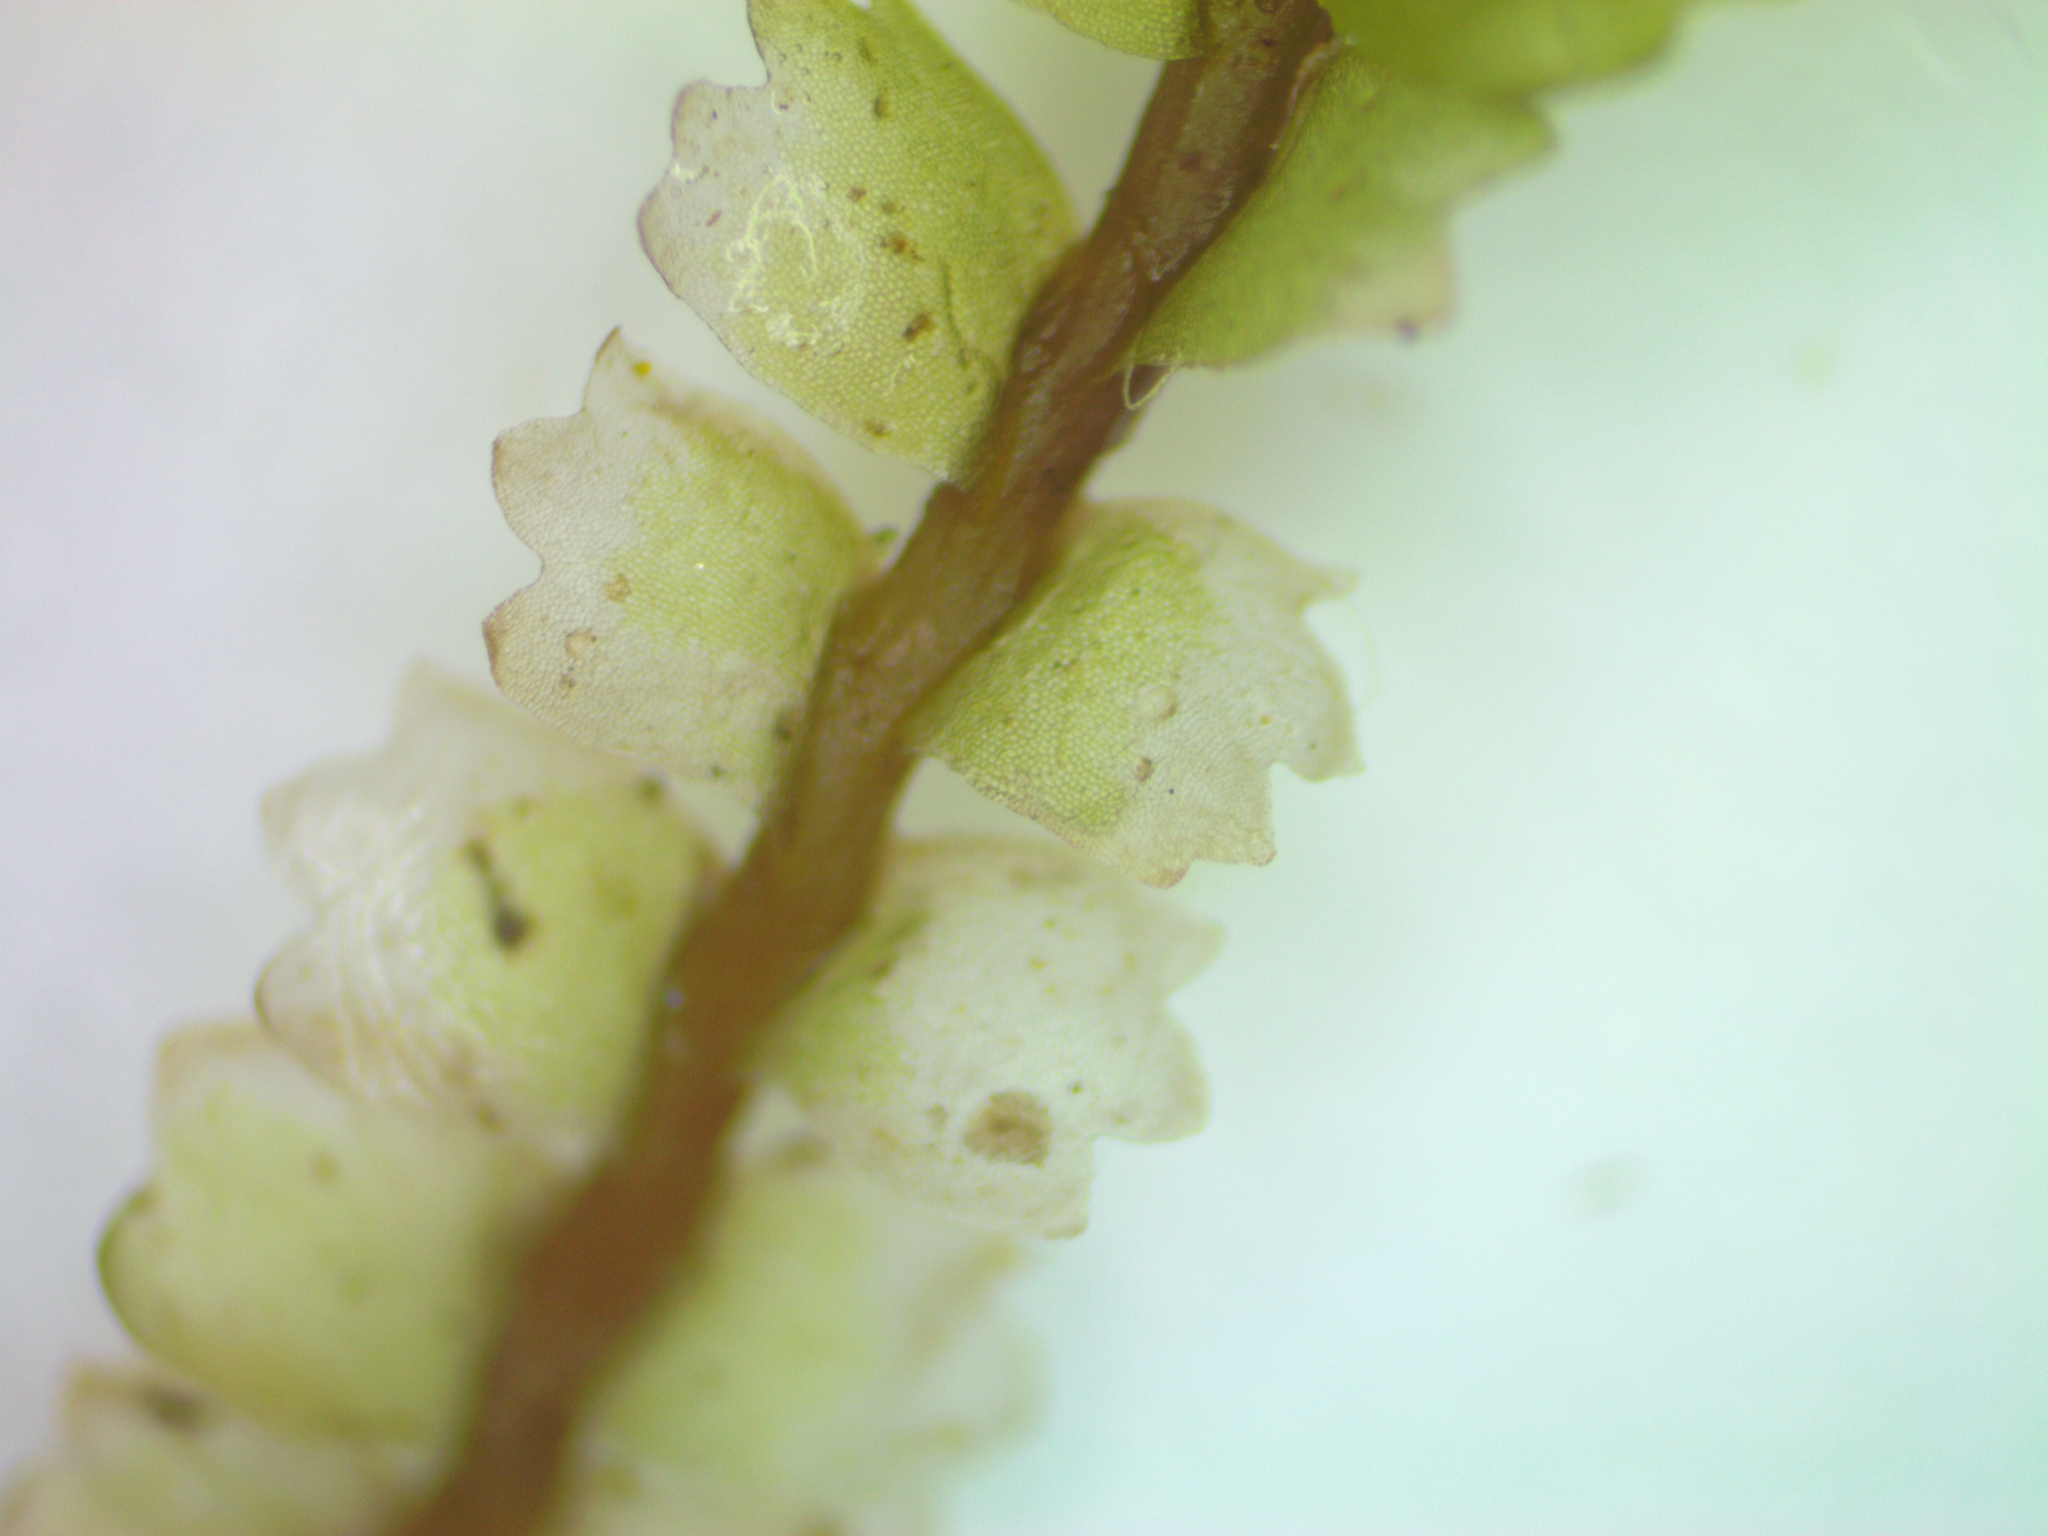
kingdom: Plantae
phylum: Marchantiophyta
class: Jungermanniopsida
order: Jungermanniales
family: Anastrophyllaceae
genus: Barbilophozia
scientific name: Barbilophozia barbata
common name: Bearded pawwort
